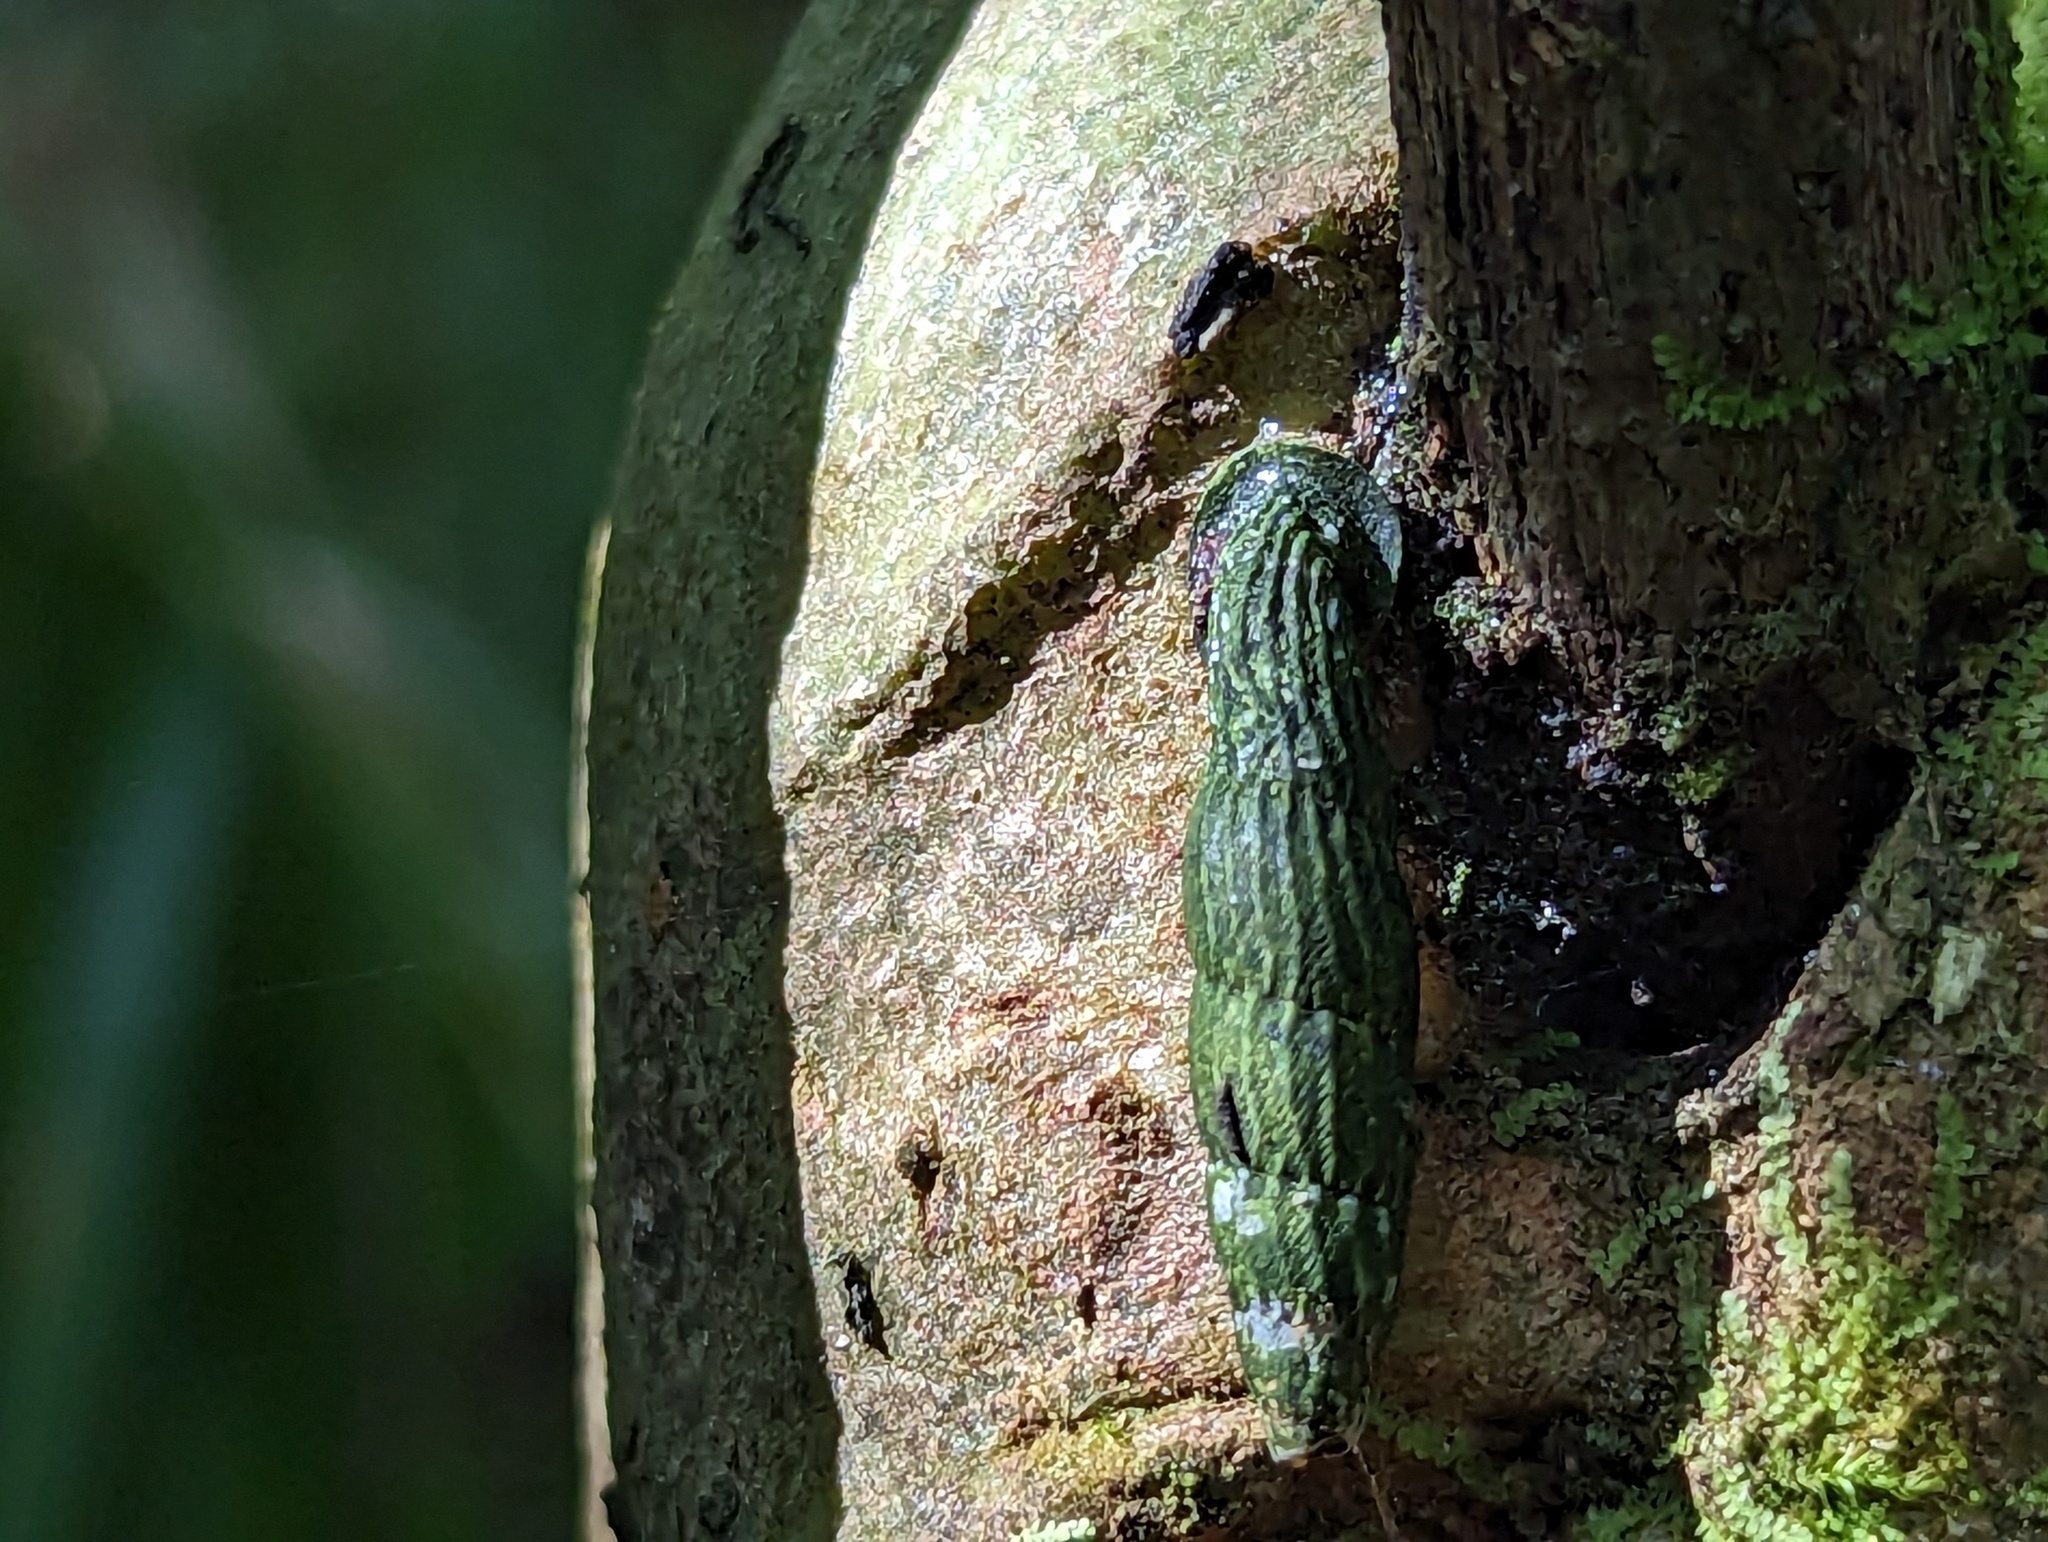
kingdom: Animalia
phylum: Mollusca
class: Gastropoda
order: Stylommatophora
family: Clausiliidae
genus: Nenia
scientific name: Nenia tridens
